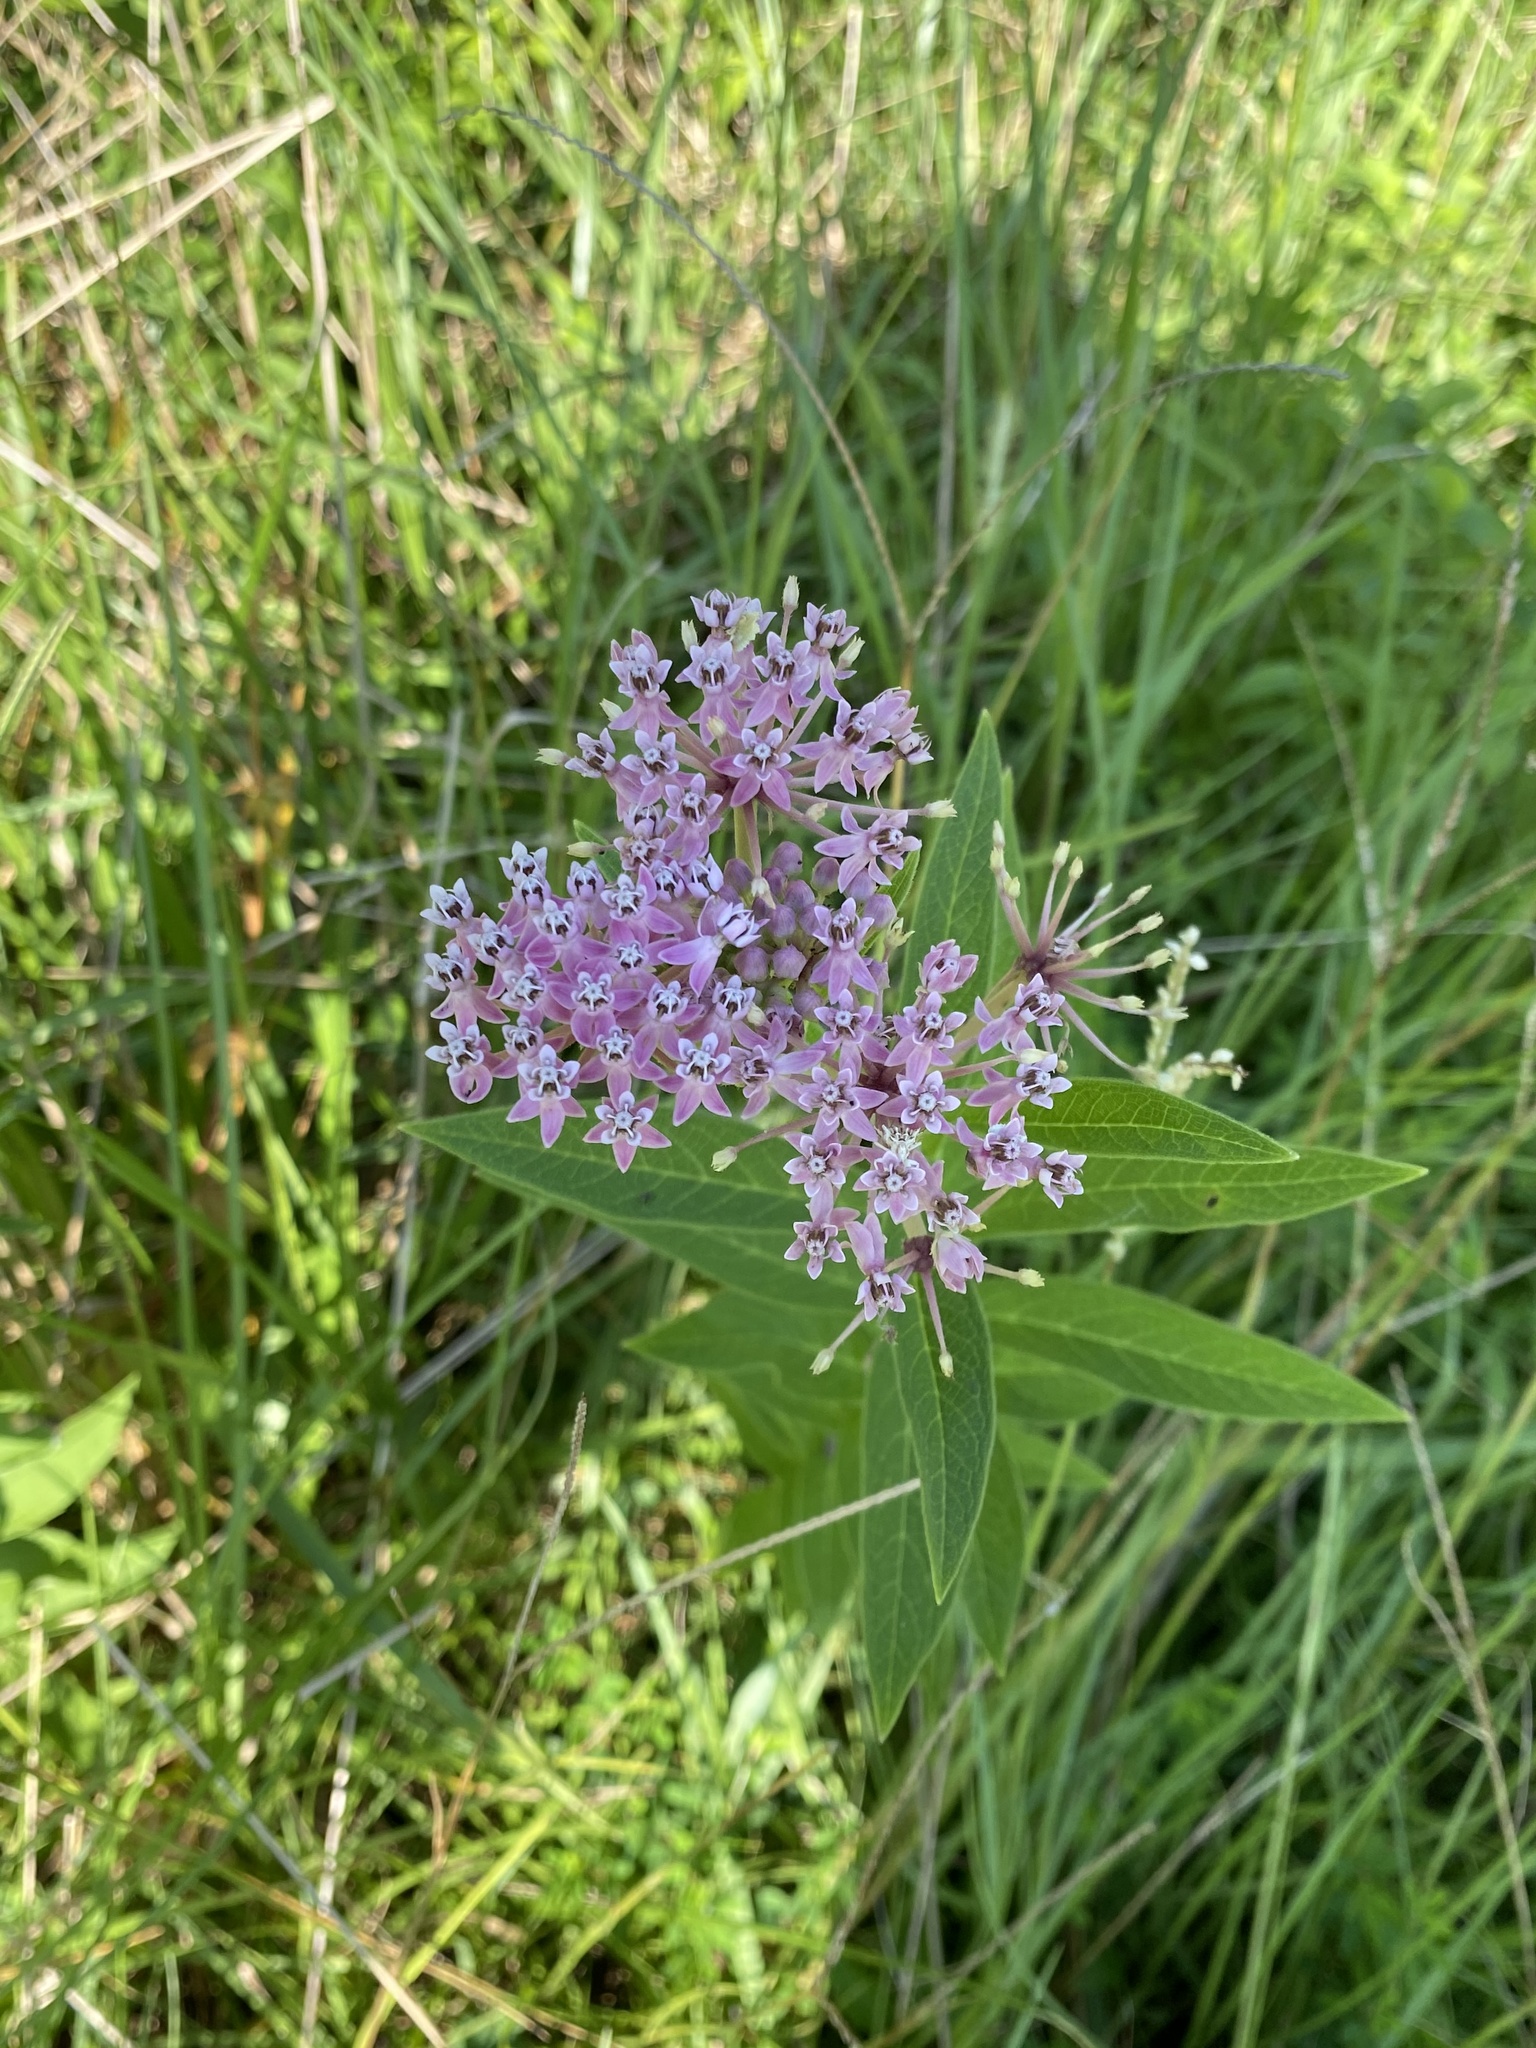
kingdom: Plantae
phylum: Tracheophyta
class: Magnoliopsida
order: Gentianales
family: Apocynaceae
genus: Asclepias
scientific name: Asclepias incarnata
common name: Swamp milkweed
